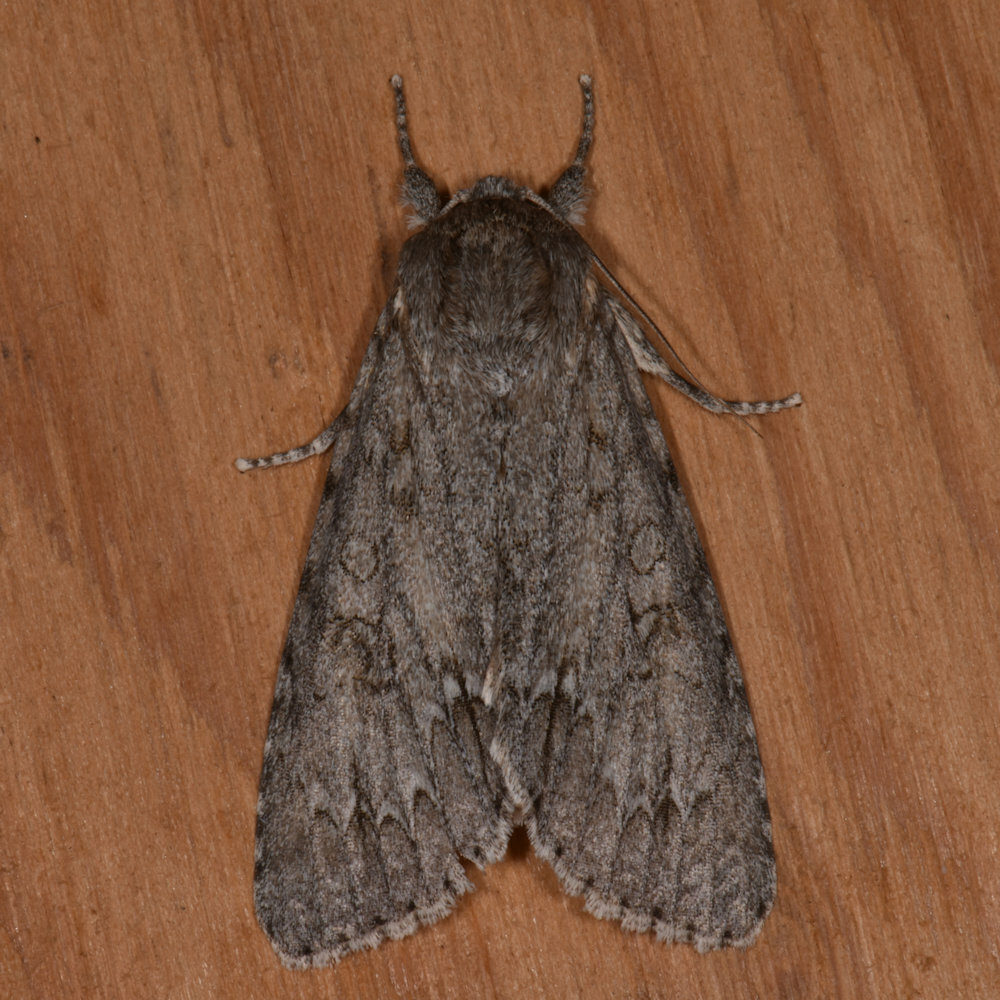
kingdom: Animalia
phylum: Arthropoda
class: Insecta
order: Lepidoptera
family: Noctuidae
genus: Acronicta
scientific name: Acronicta americana
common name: American dagger
